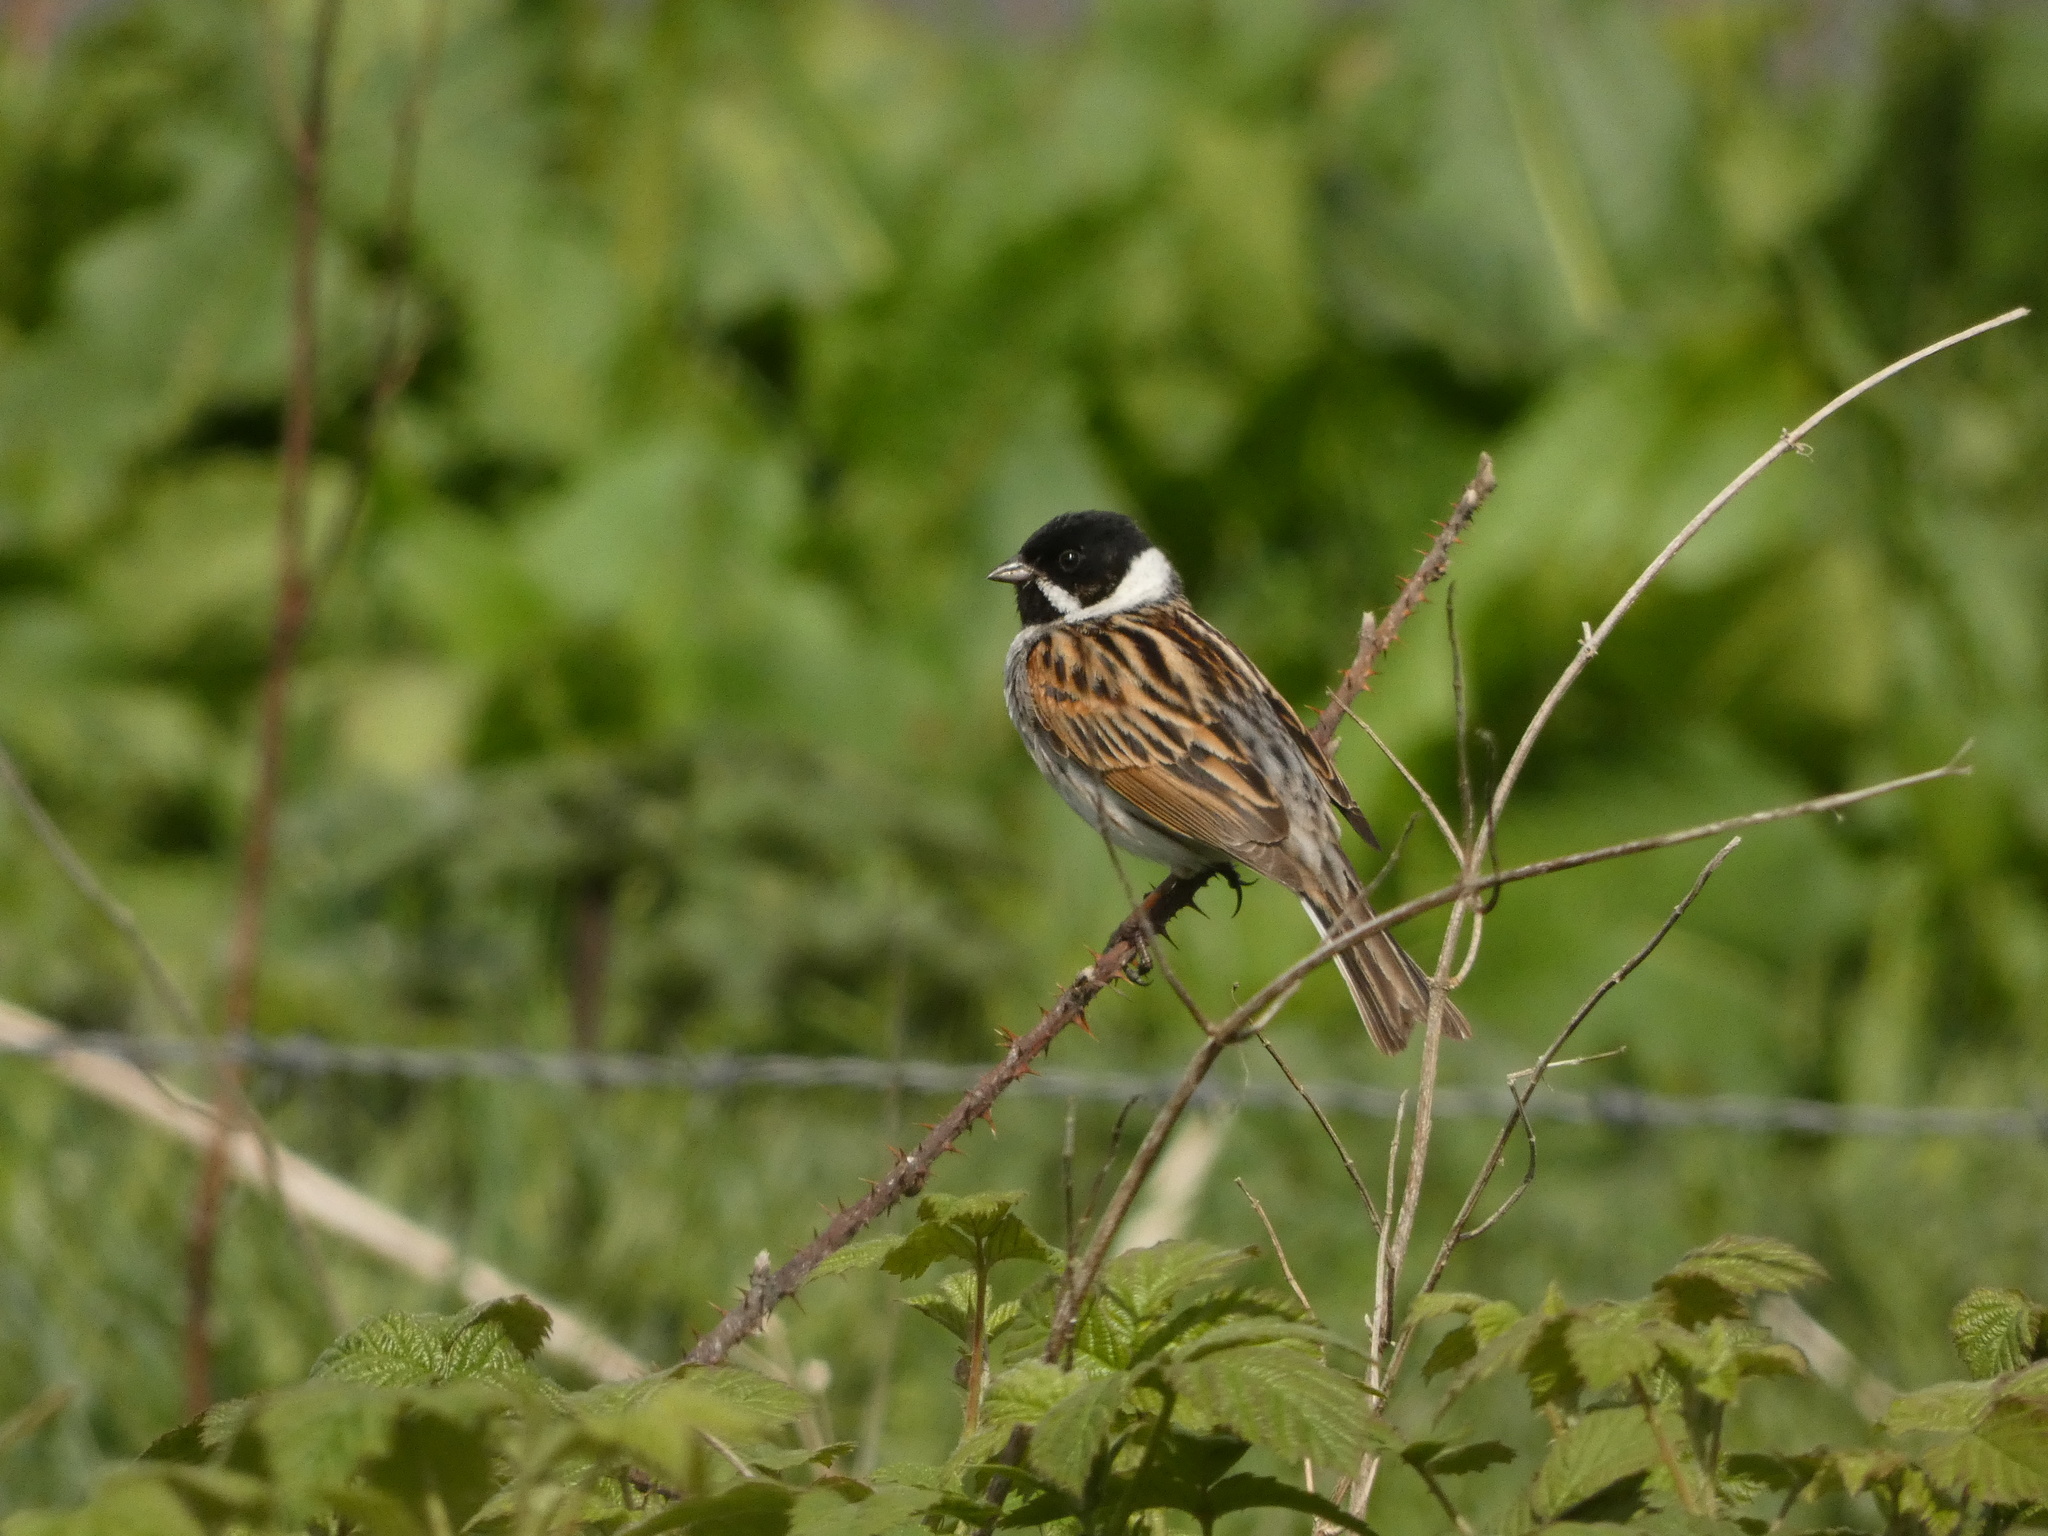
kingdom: Animalia
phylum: Chordata
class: Aves
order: Passeriformes
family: Emberizidae
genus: Emberiza
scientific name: Emberiza schoeniclus
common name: Reed bunting
